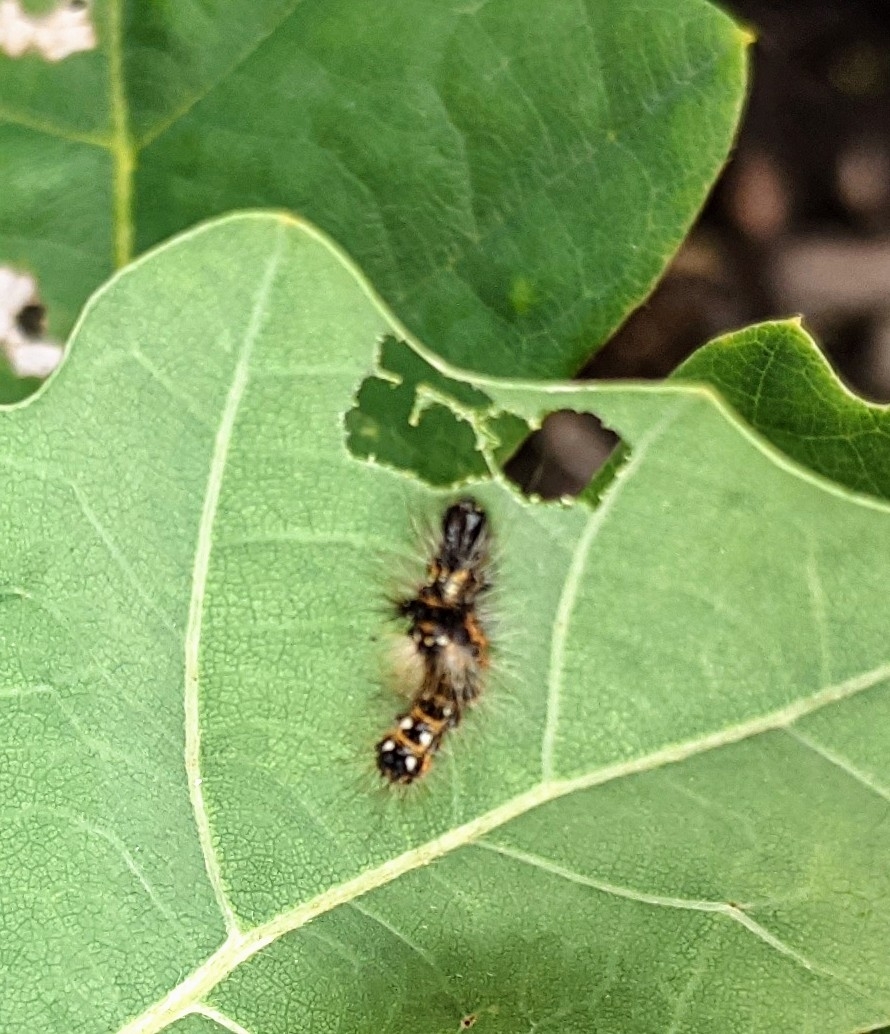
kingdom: Animalia
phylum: Arthropoda
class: Insecta
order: Lepidoptera
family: Noctuidae
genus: Acronicta
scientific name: Acronicta rumicis
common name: Knot grass
